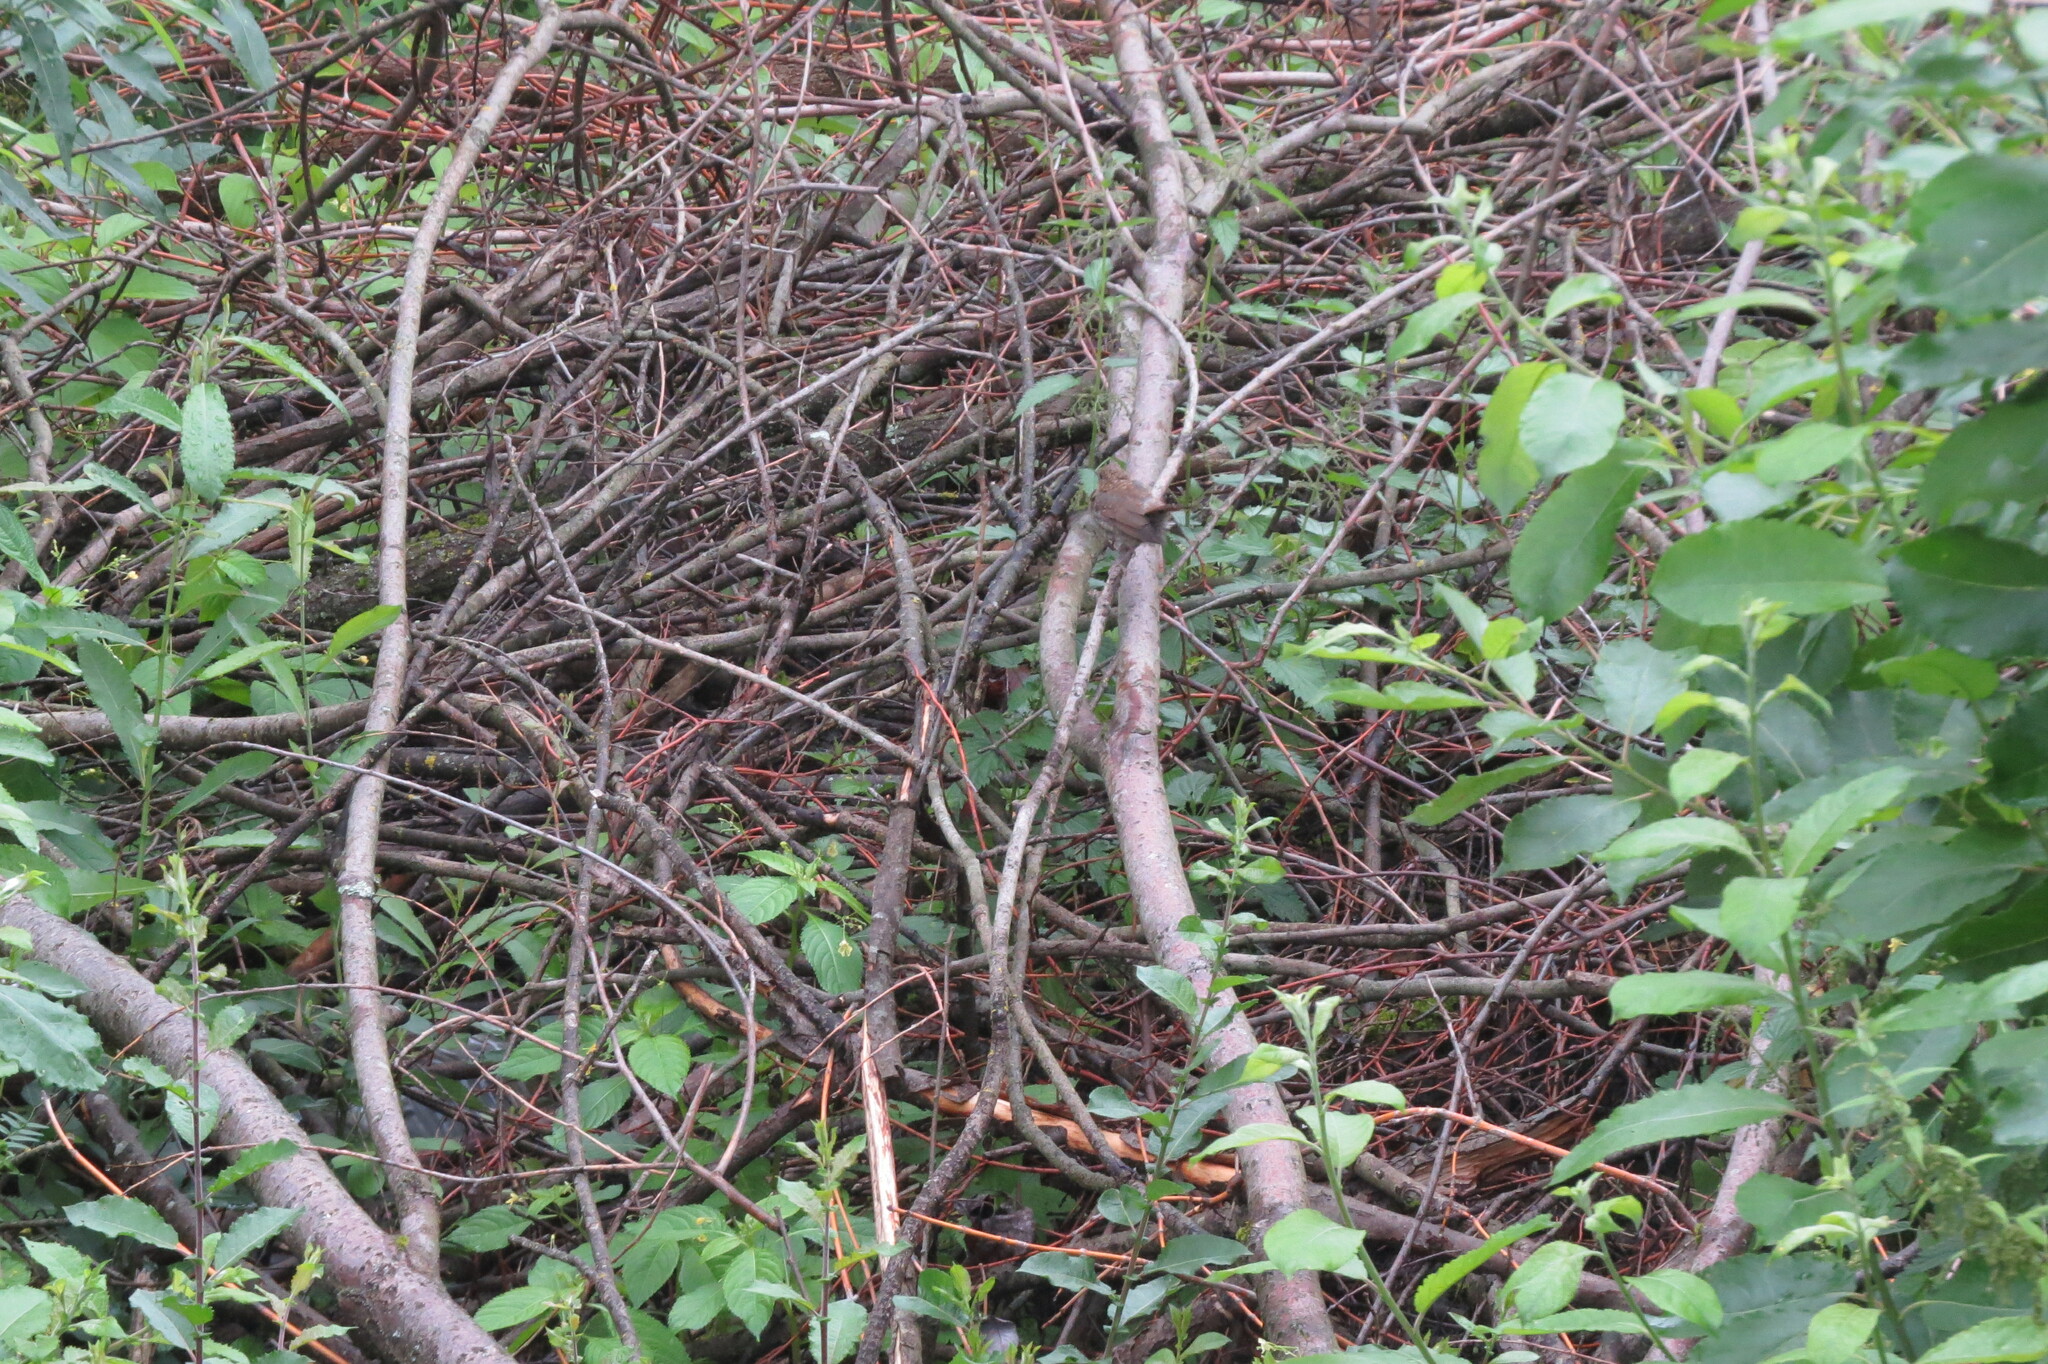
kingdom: Animalia
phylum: Chordata
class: Aves
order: Passeriformes
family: Muscicapidae
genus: Erithacus
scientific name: Erithacus rubecula
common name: European robin
